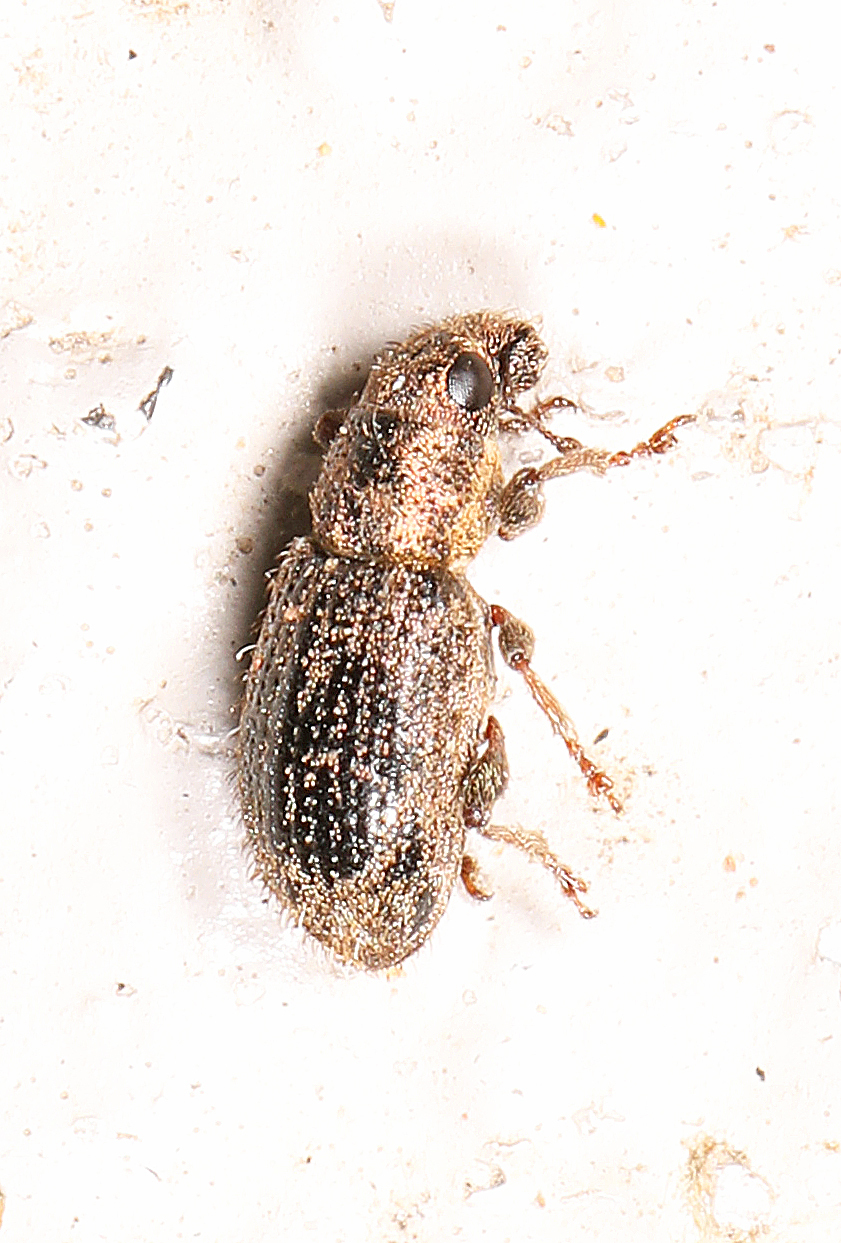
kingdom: Animalia
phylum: Arthropoda
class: Insecta
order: Coleoptera
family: Curculionidae
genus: Sitona
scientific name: Sitona hispidulus
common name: Clover weevil
